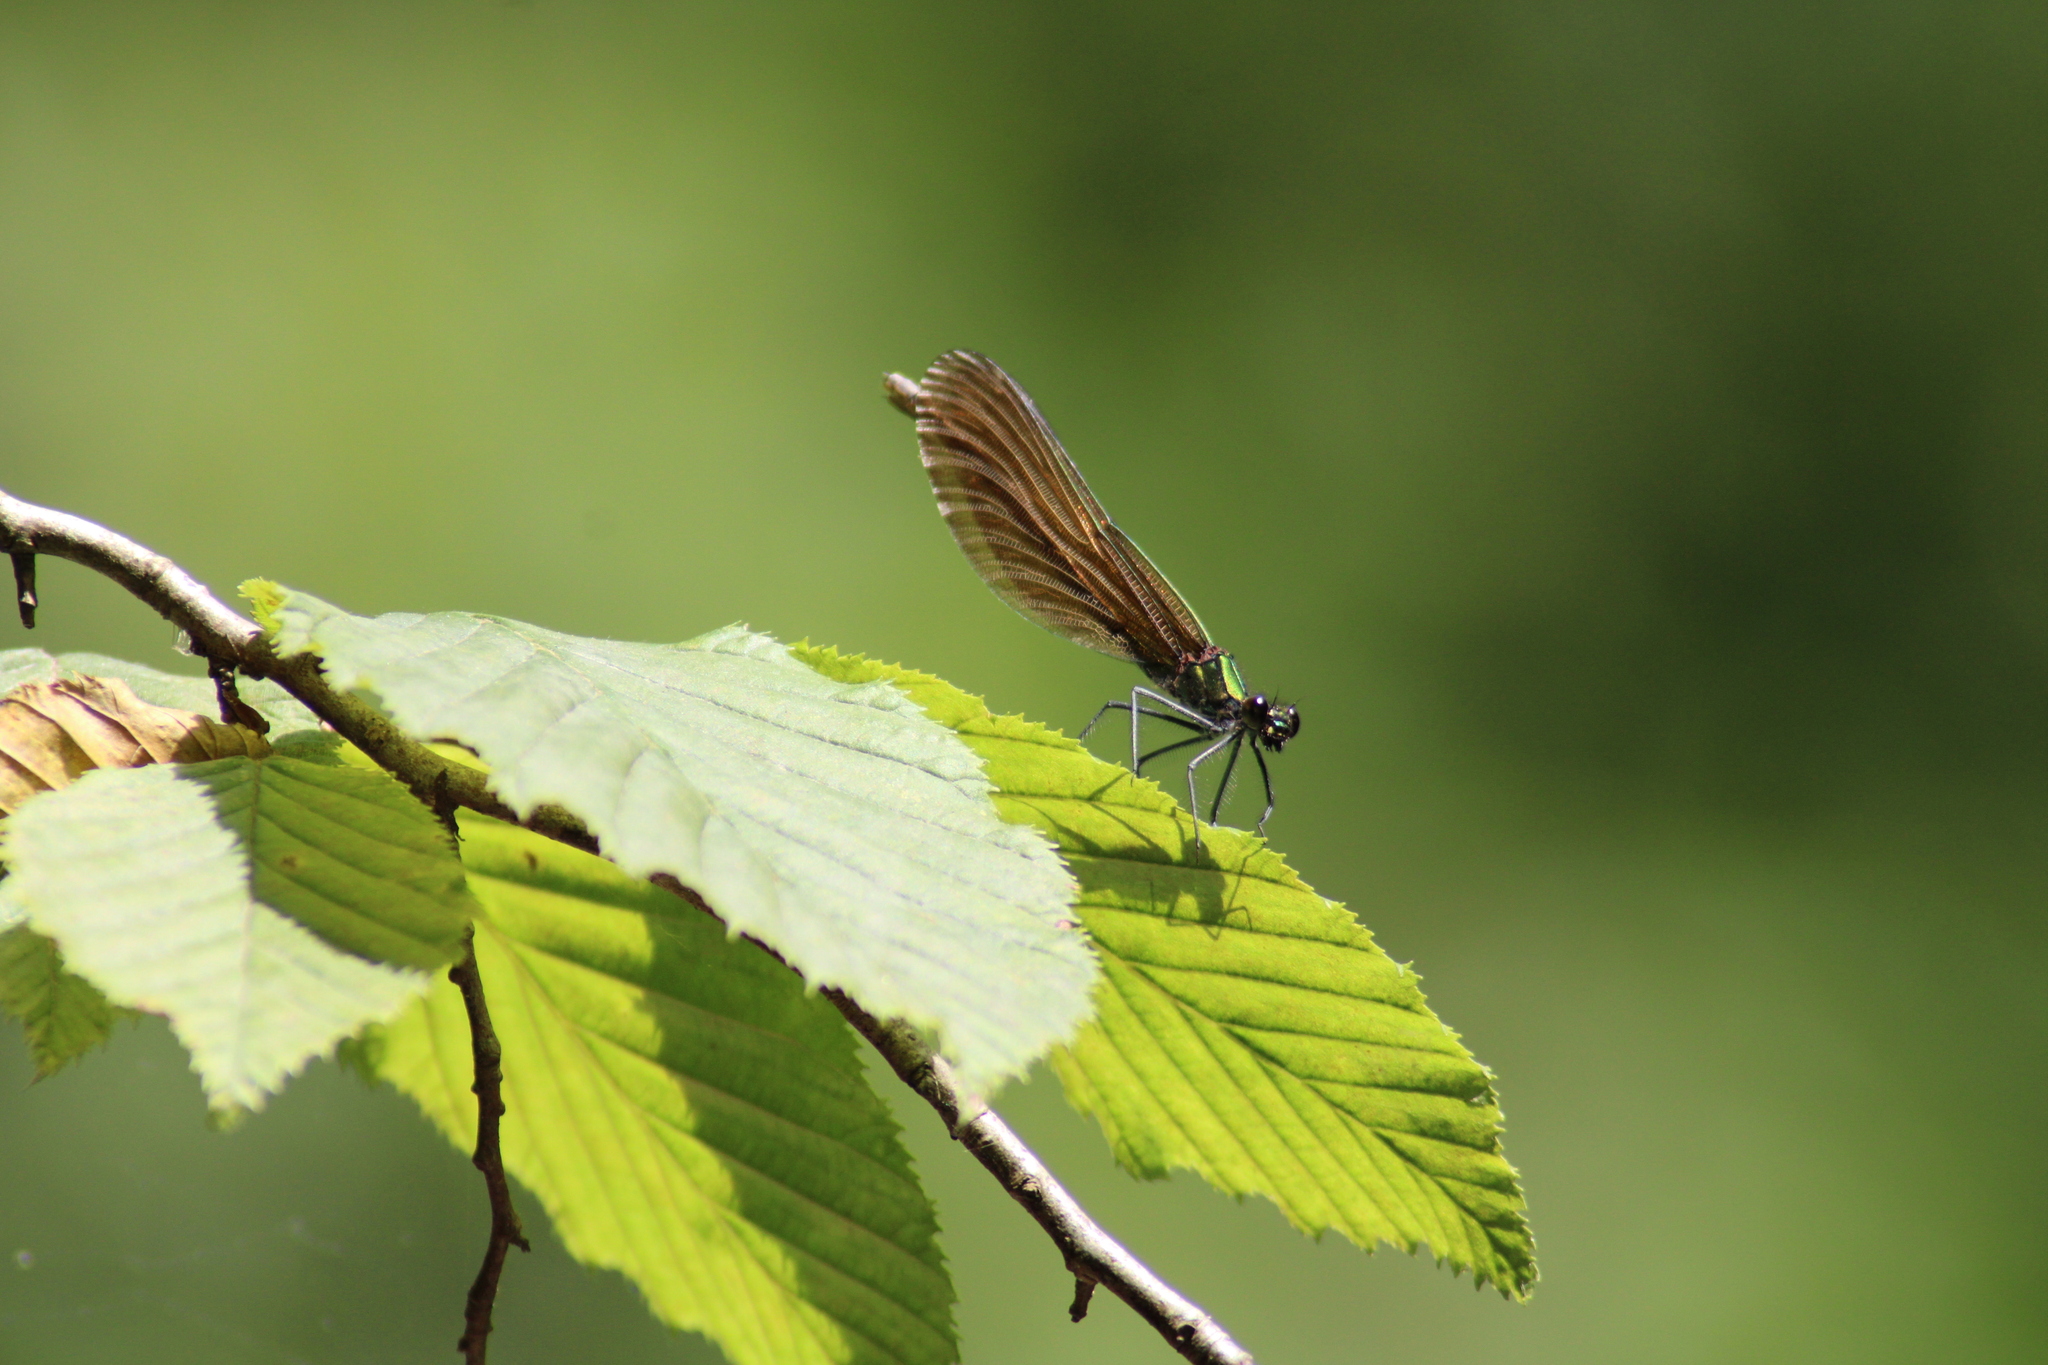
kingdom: Animalia
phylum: Arthropoda
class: Insecta
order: Odonata
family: Calopterygidae
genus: Calopteryx
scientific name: Calopteryx virgo
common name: Beautiful demoiselle
